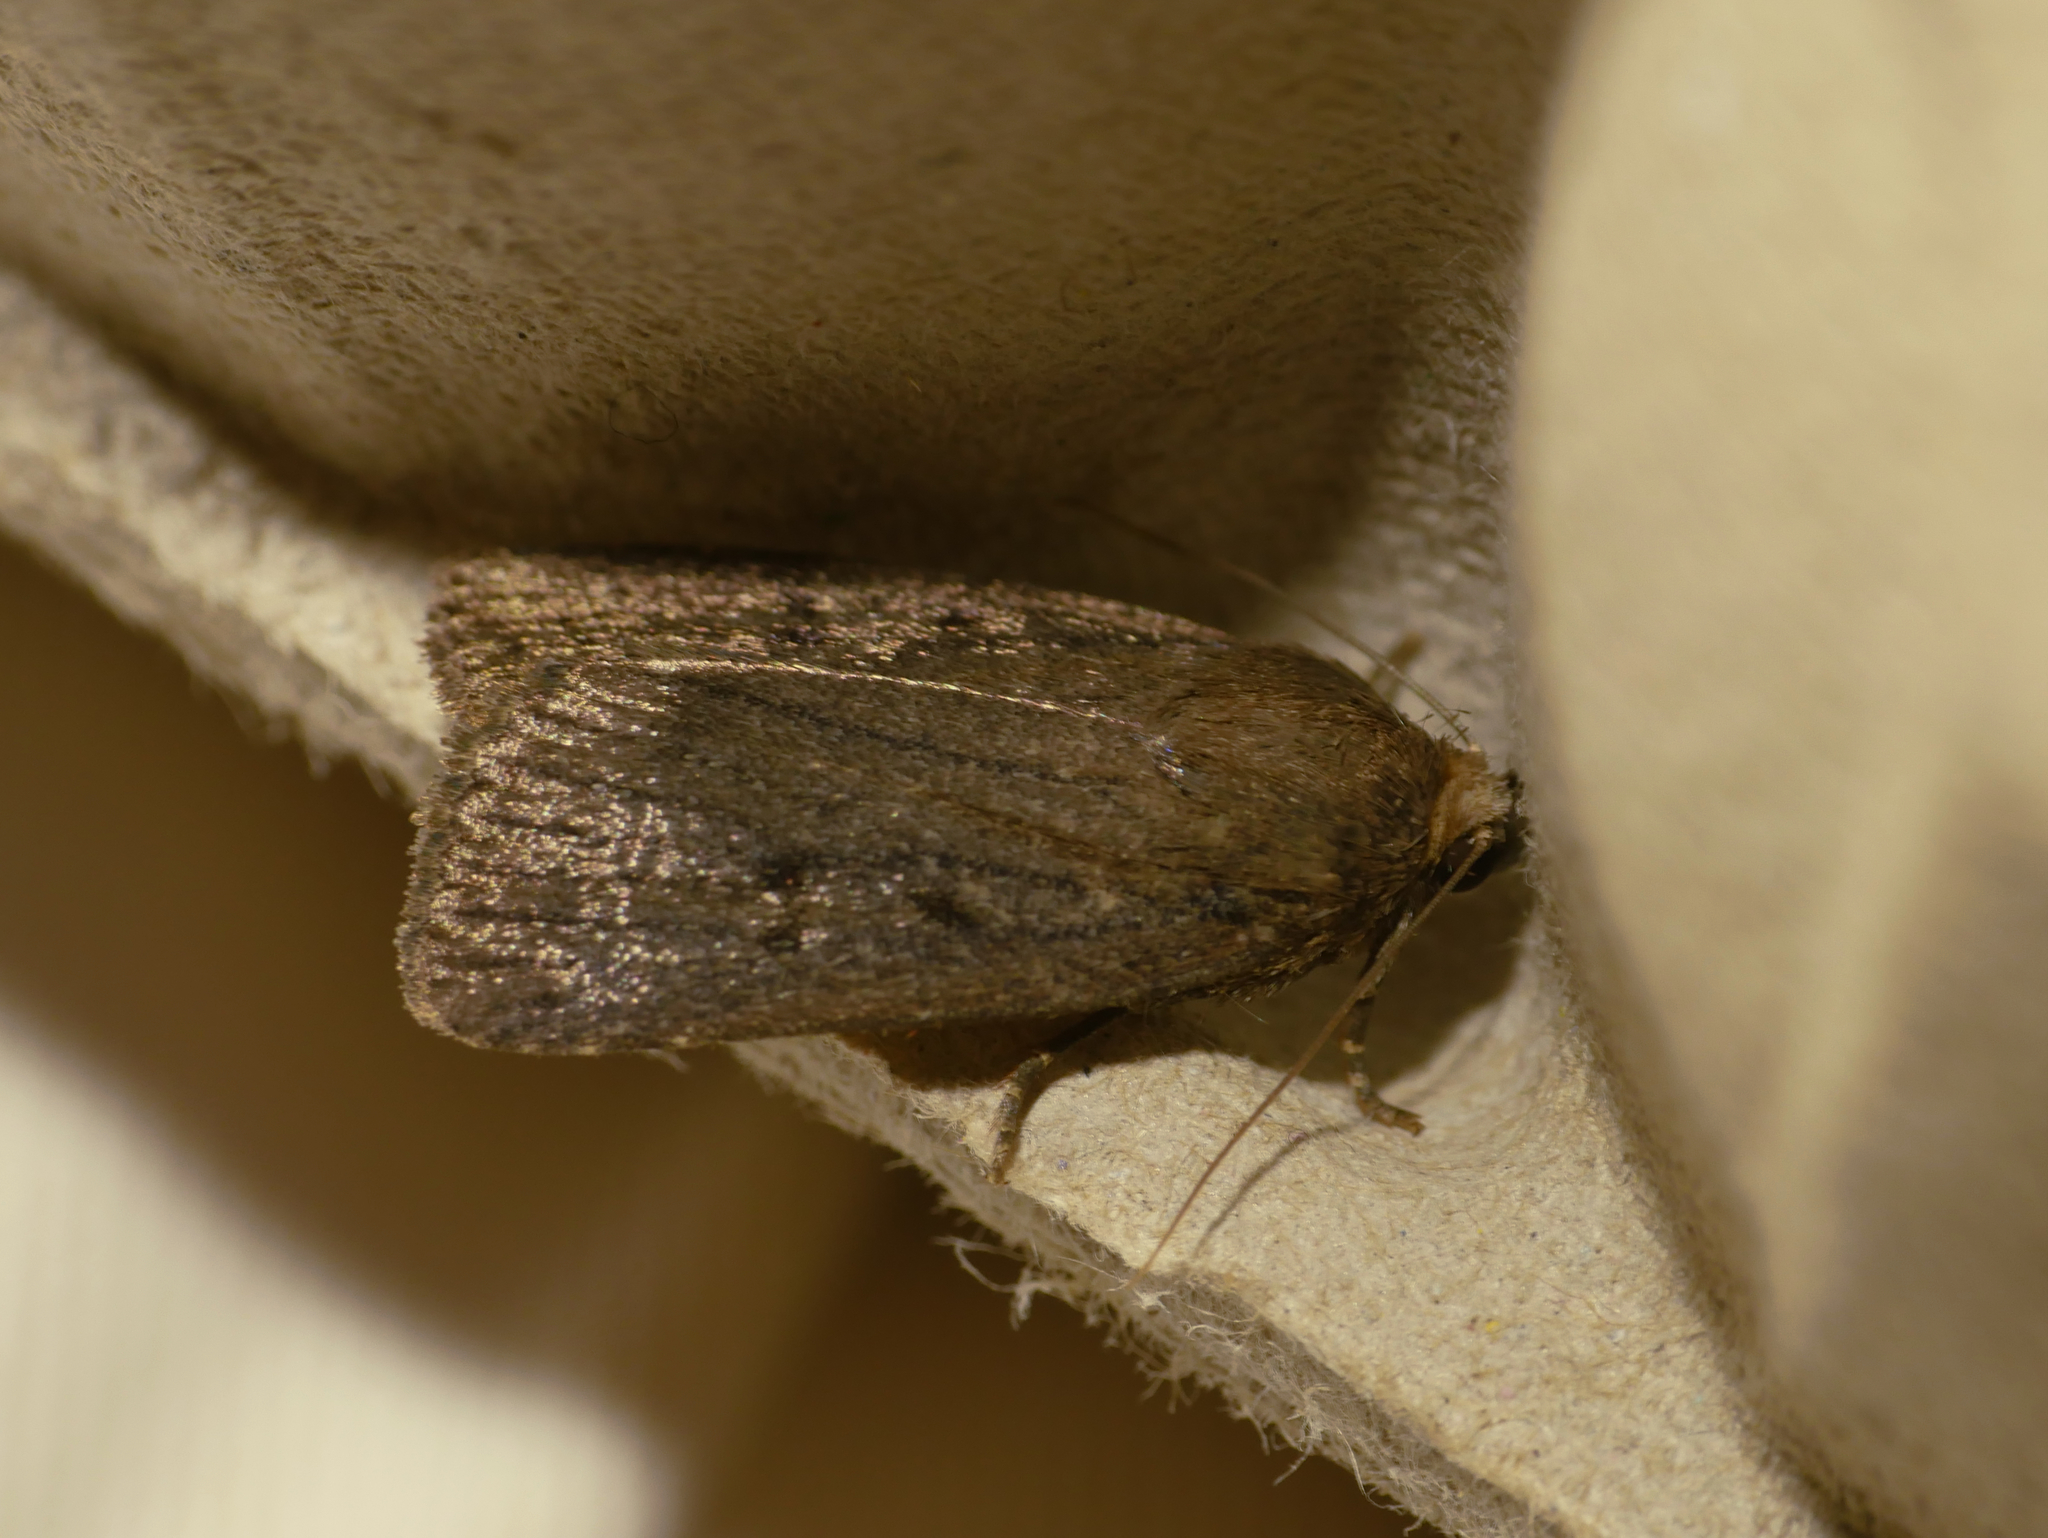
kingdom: Animalia
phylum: Arthropoda
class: Insecta
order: Lepidoptera
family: Noctuidae
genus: Amphipyra
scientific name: Amphipyra tragopoginis
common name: Mouse moth
